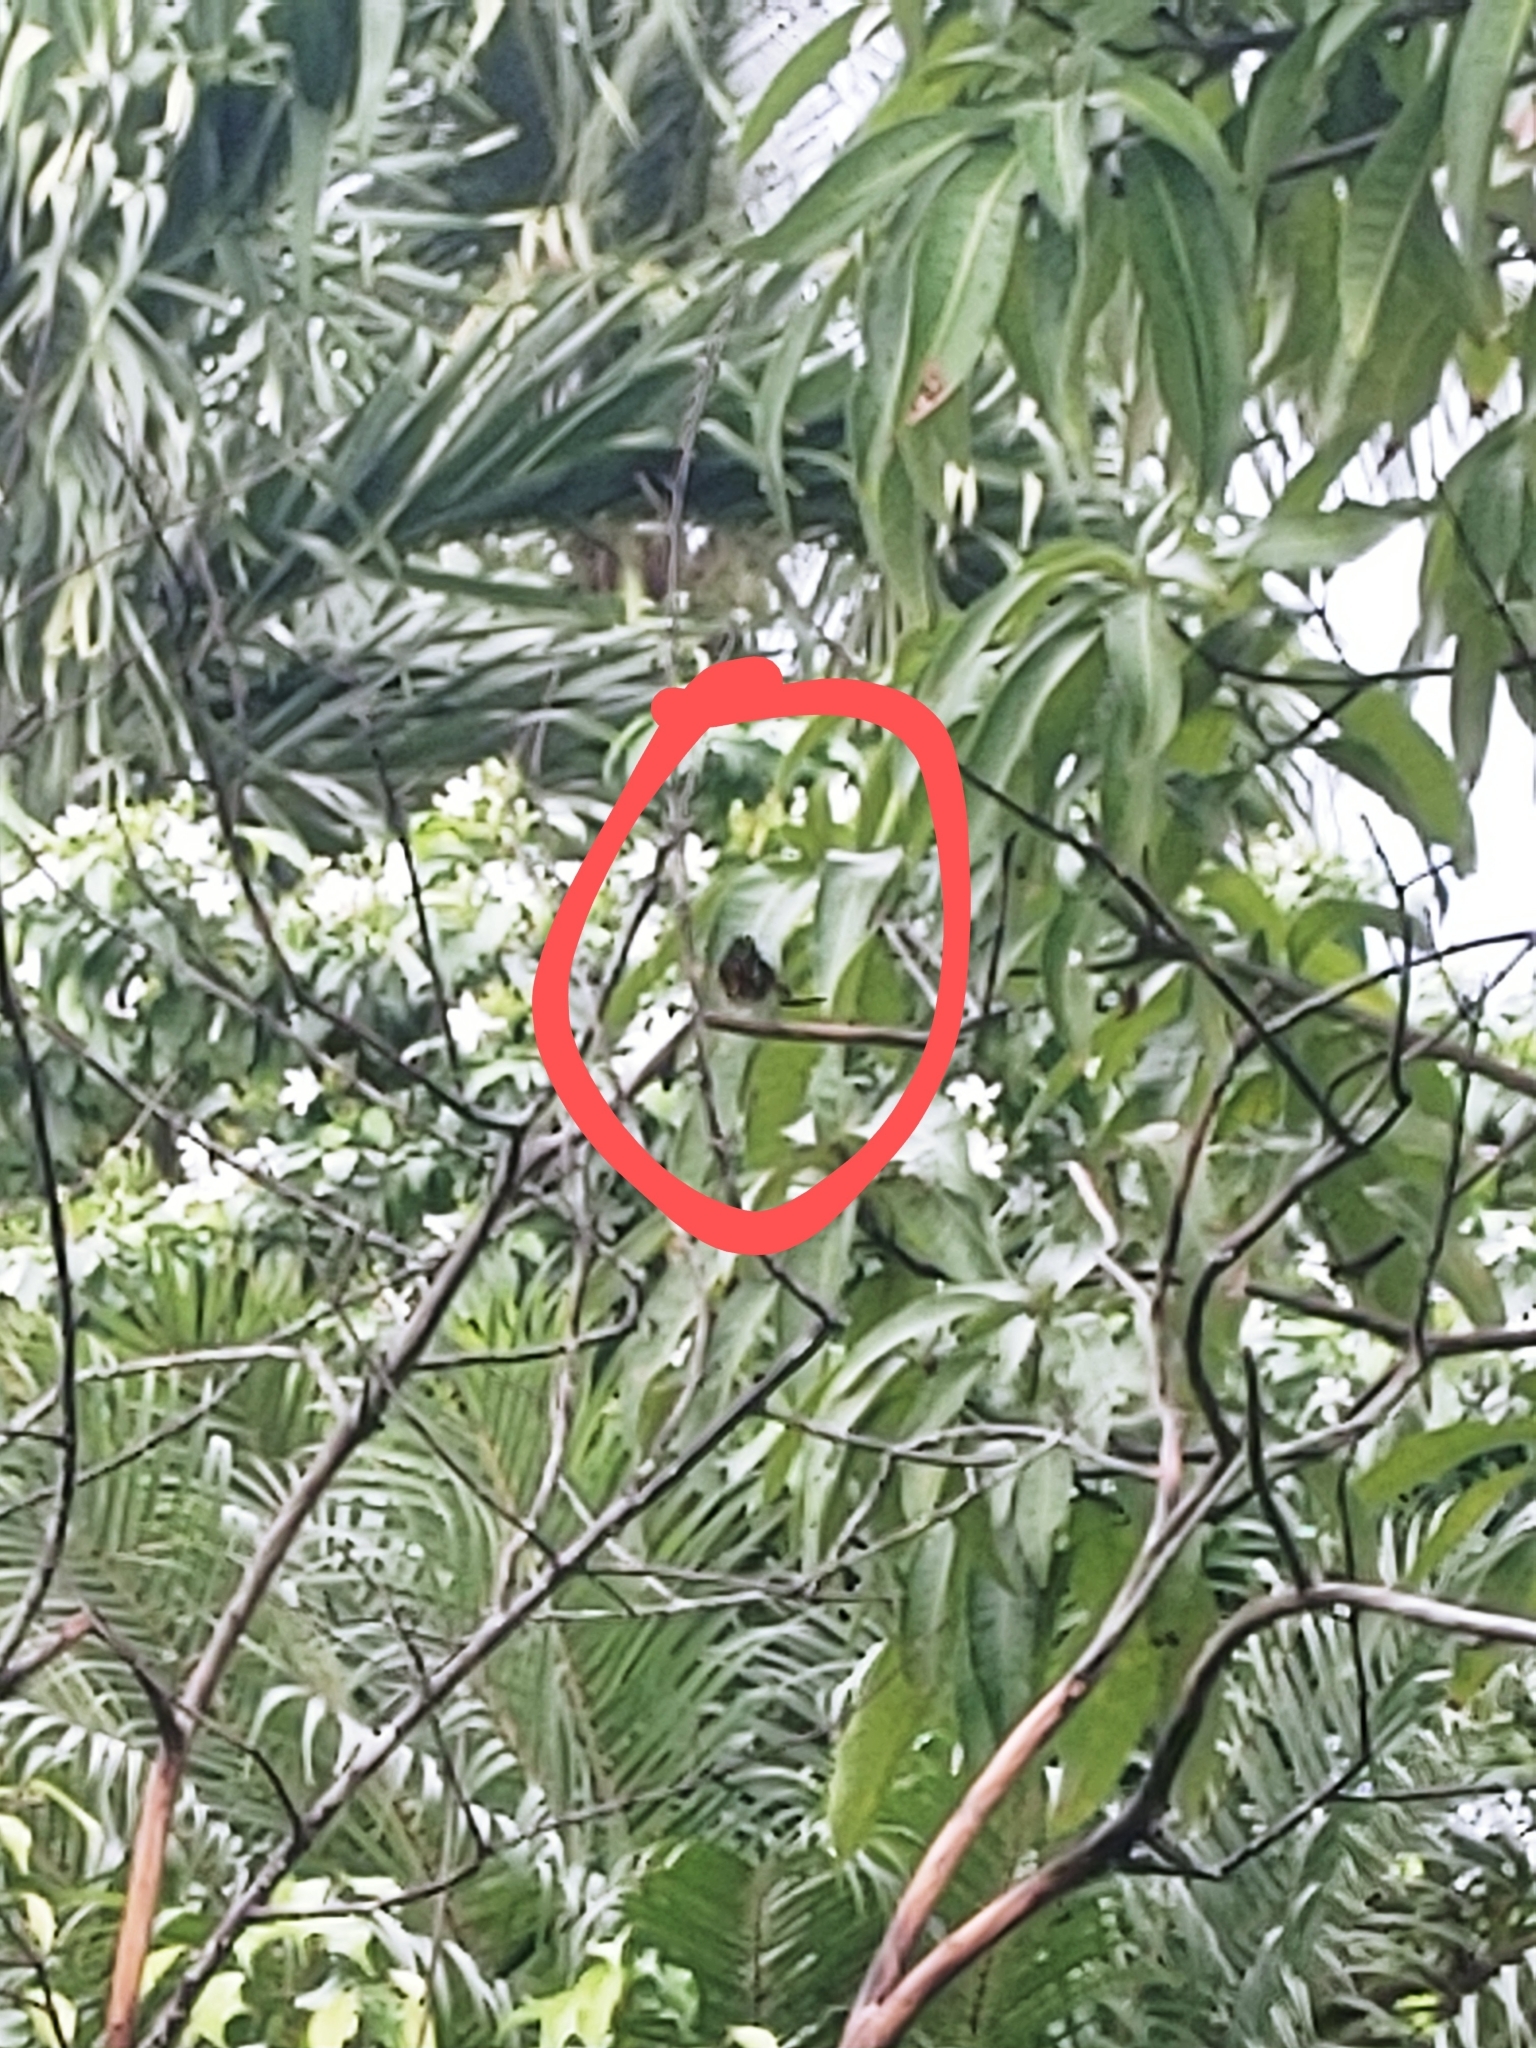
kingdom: Animalia
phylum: Chordata
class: Aves
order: Passeriformes
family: Parulidae
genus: Setophaga
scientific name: Setophaga ruticilla
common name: American redstart
